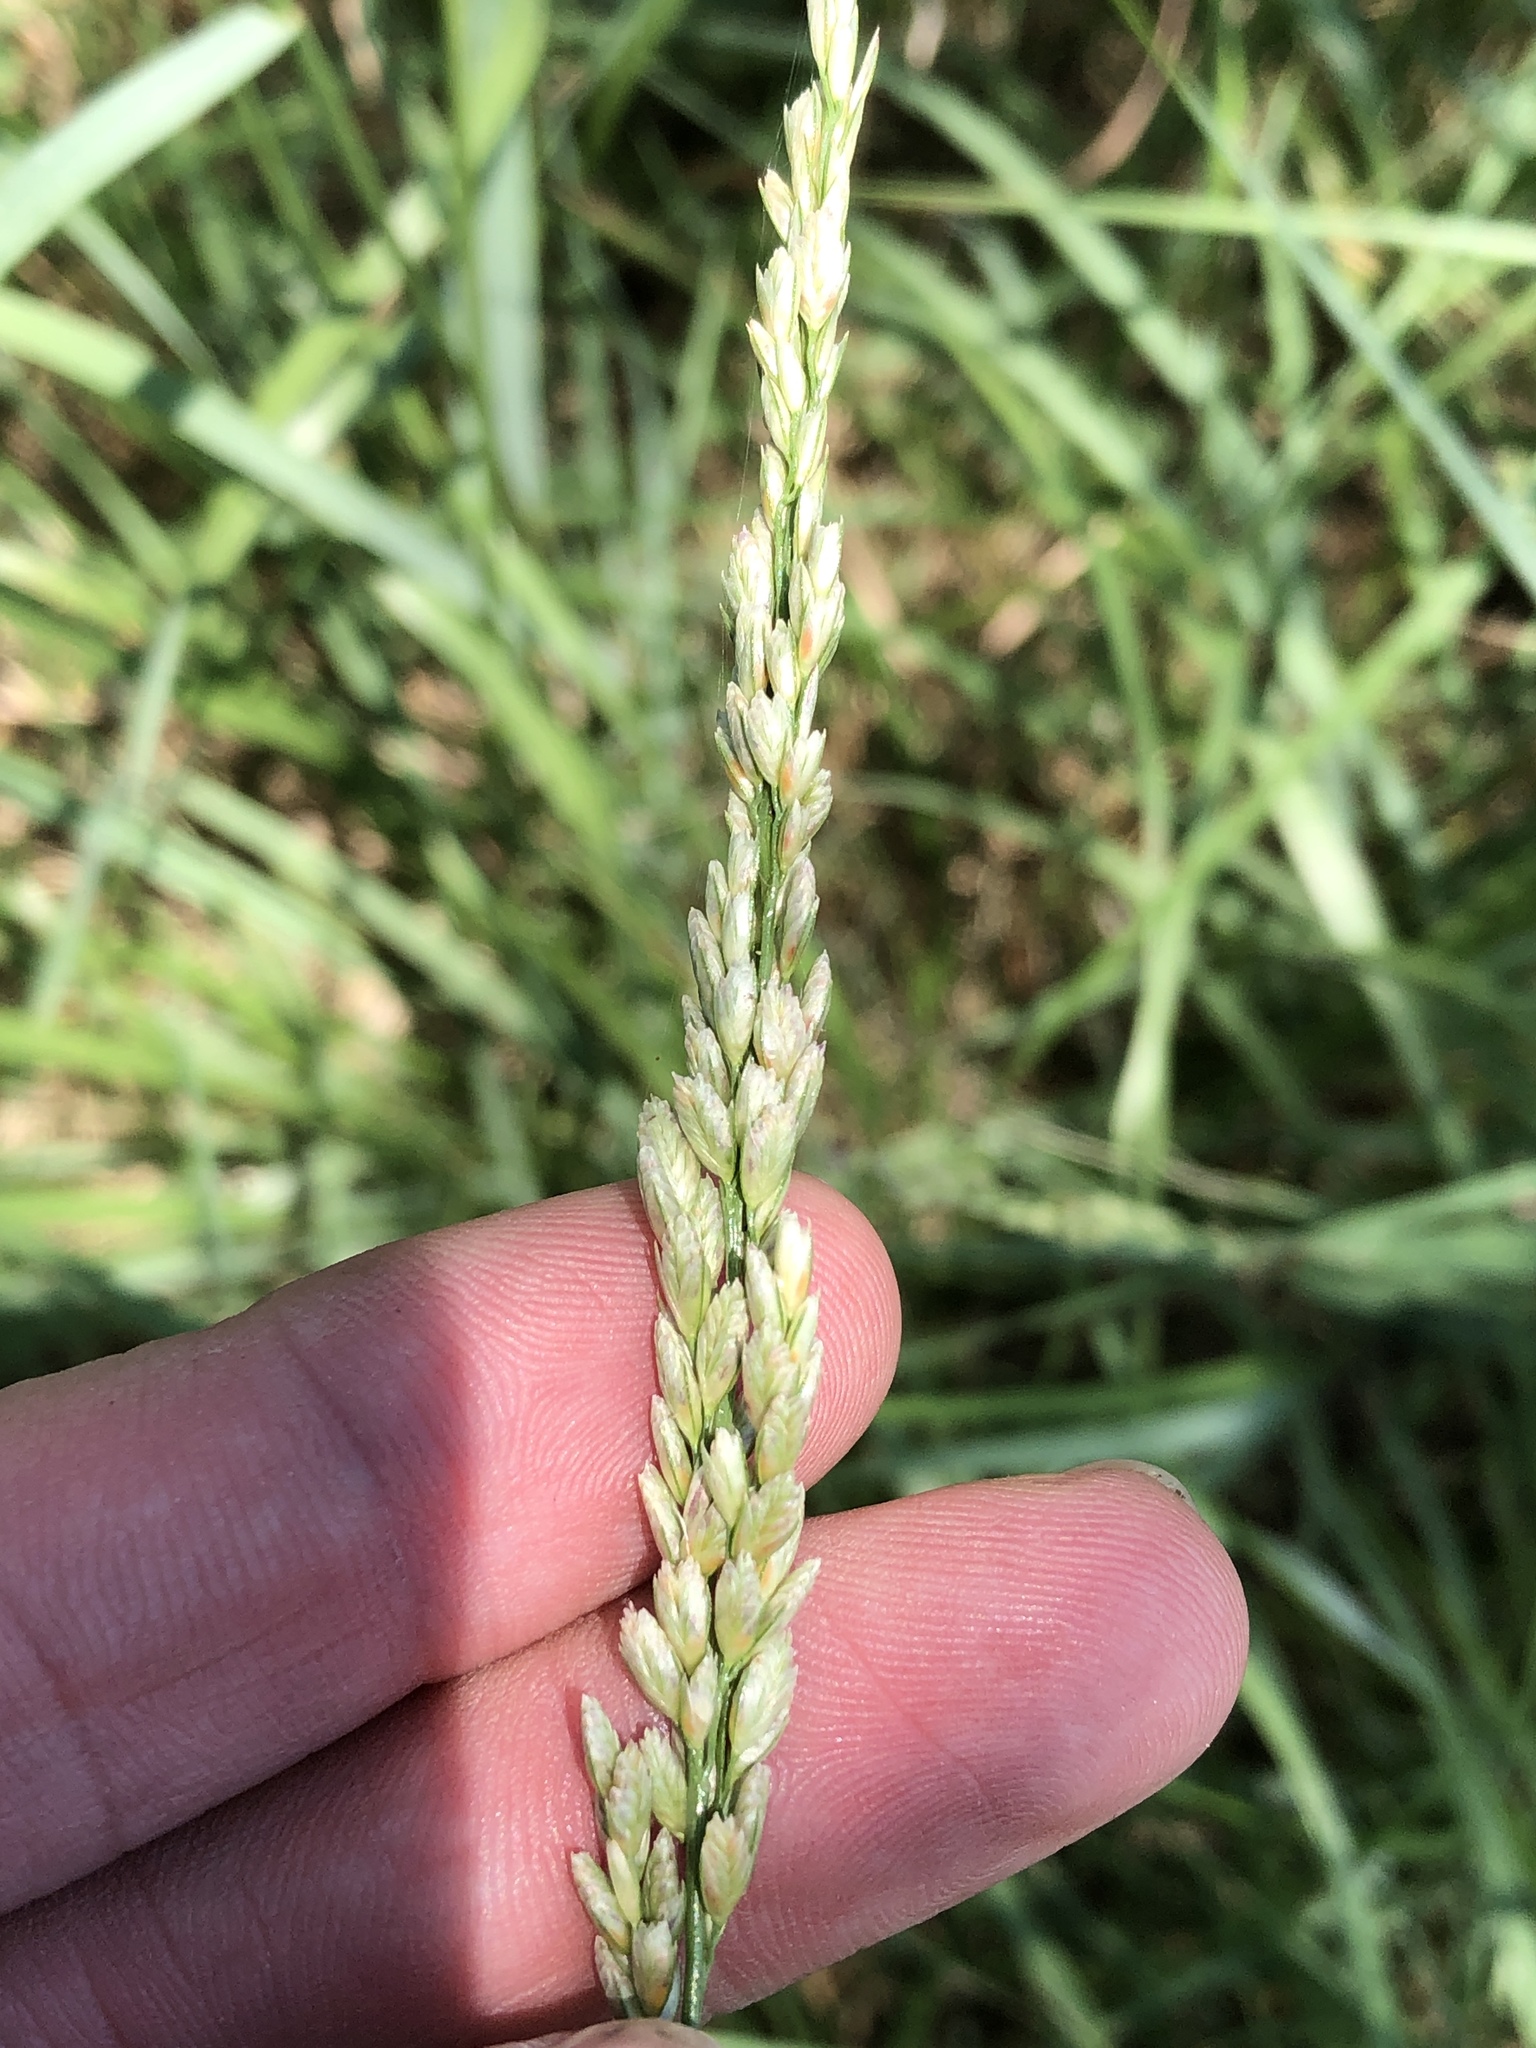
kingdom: Plantae
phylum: Tracheophyta
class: Liliopsida
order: Poales
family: Poaceae
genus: Tridens
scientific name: Tridens albescens
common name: White tridens
